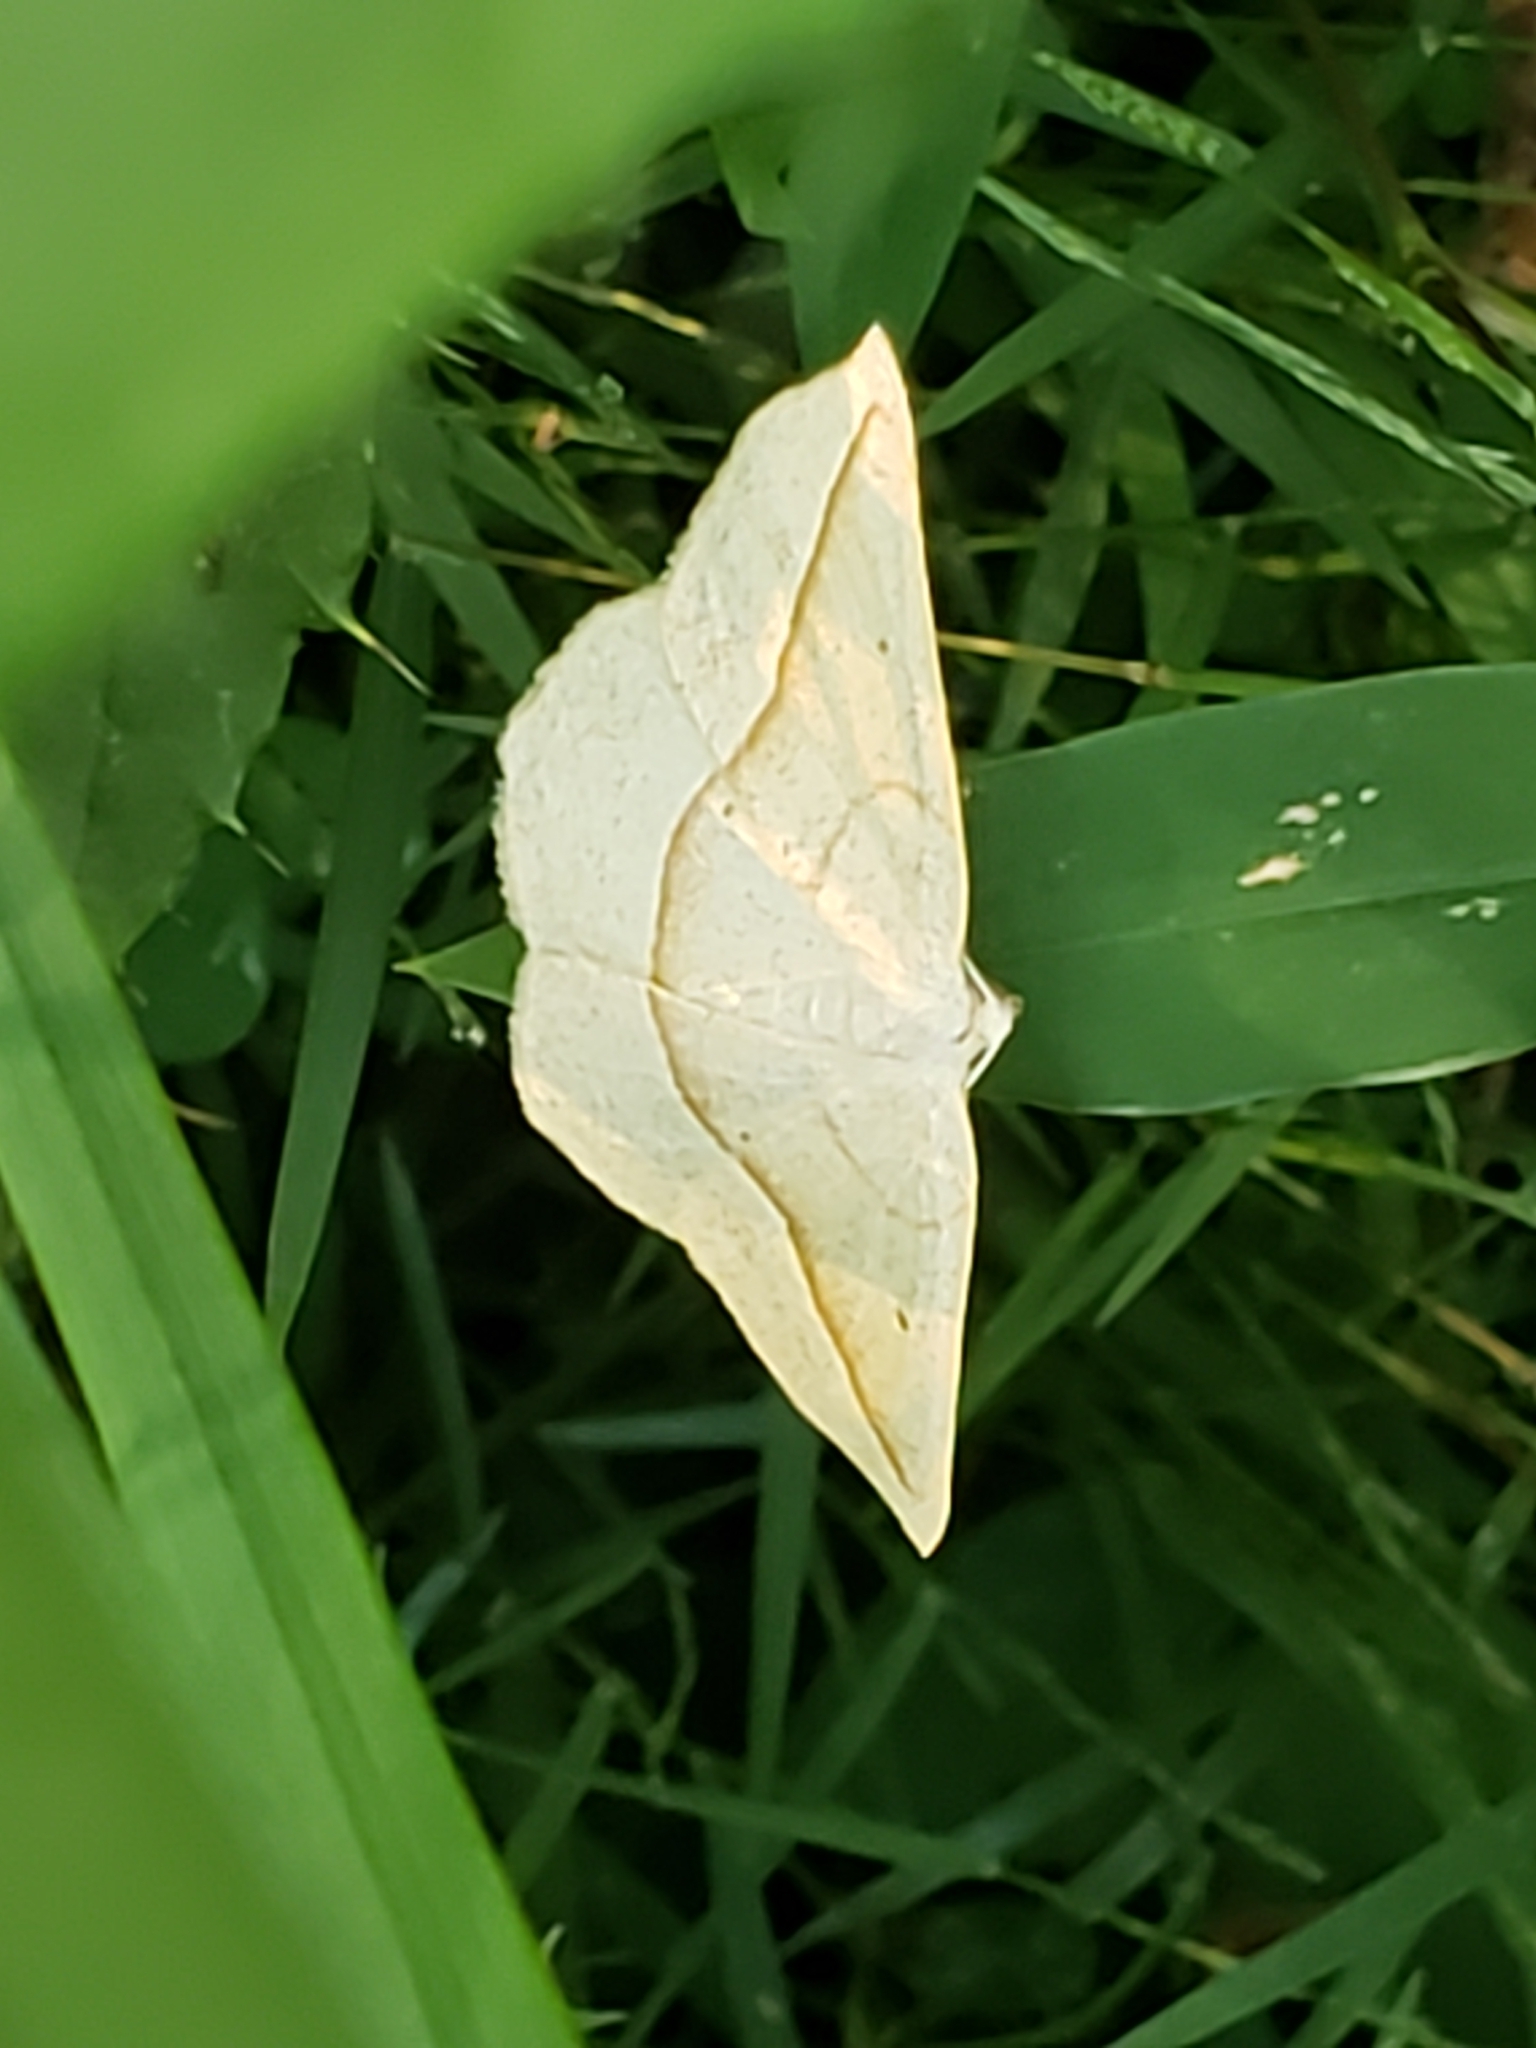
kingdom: Animalia
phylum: Arthropoda
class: Insecta
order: Lepidoptera
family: Geometridae
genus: Eusarca
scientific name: Eusarca confusaria
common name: Confused eusarca
